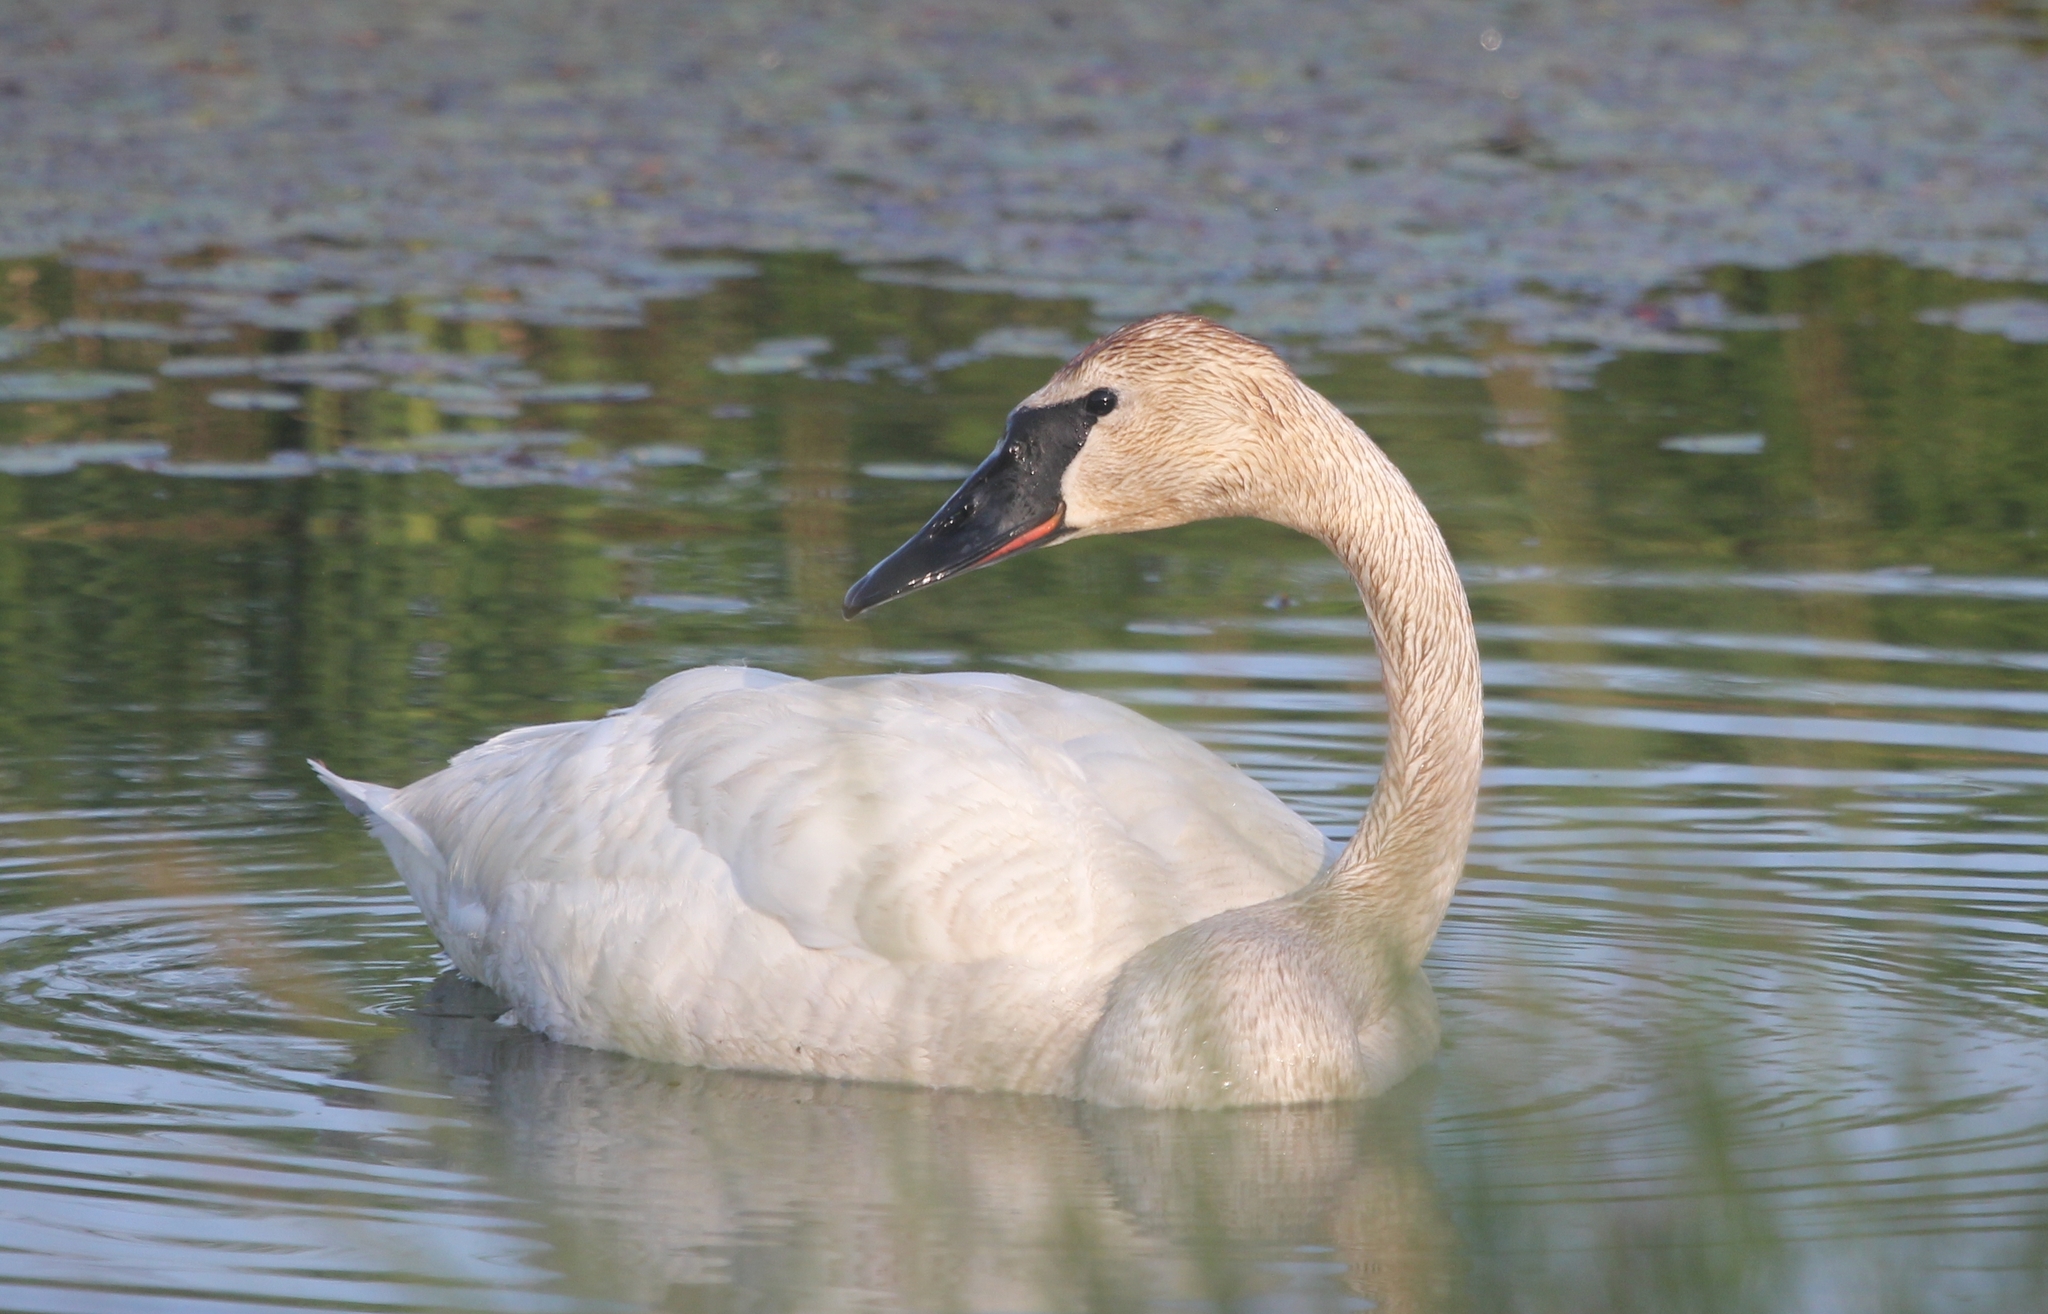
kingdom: Animalia
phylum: Chordata
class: Aves
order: Anseriformes
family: Anatidae
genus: Cygnus
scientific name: Cygnus buccinator
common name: Trumpeter swan
